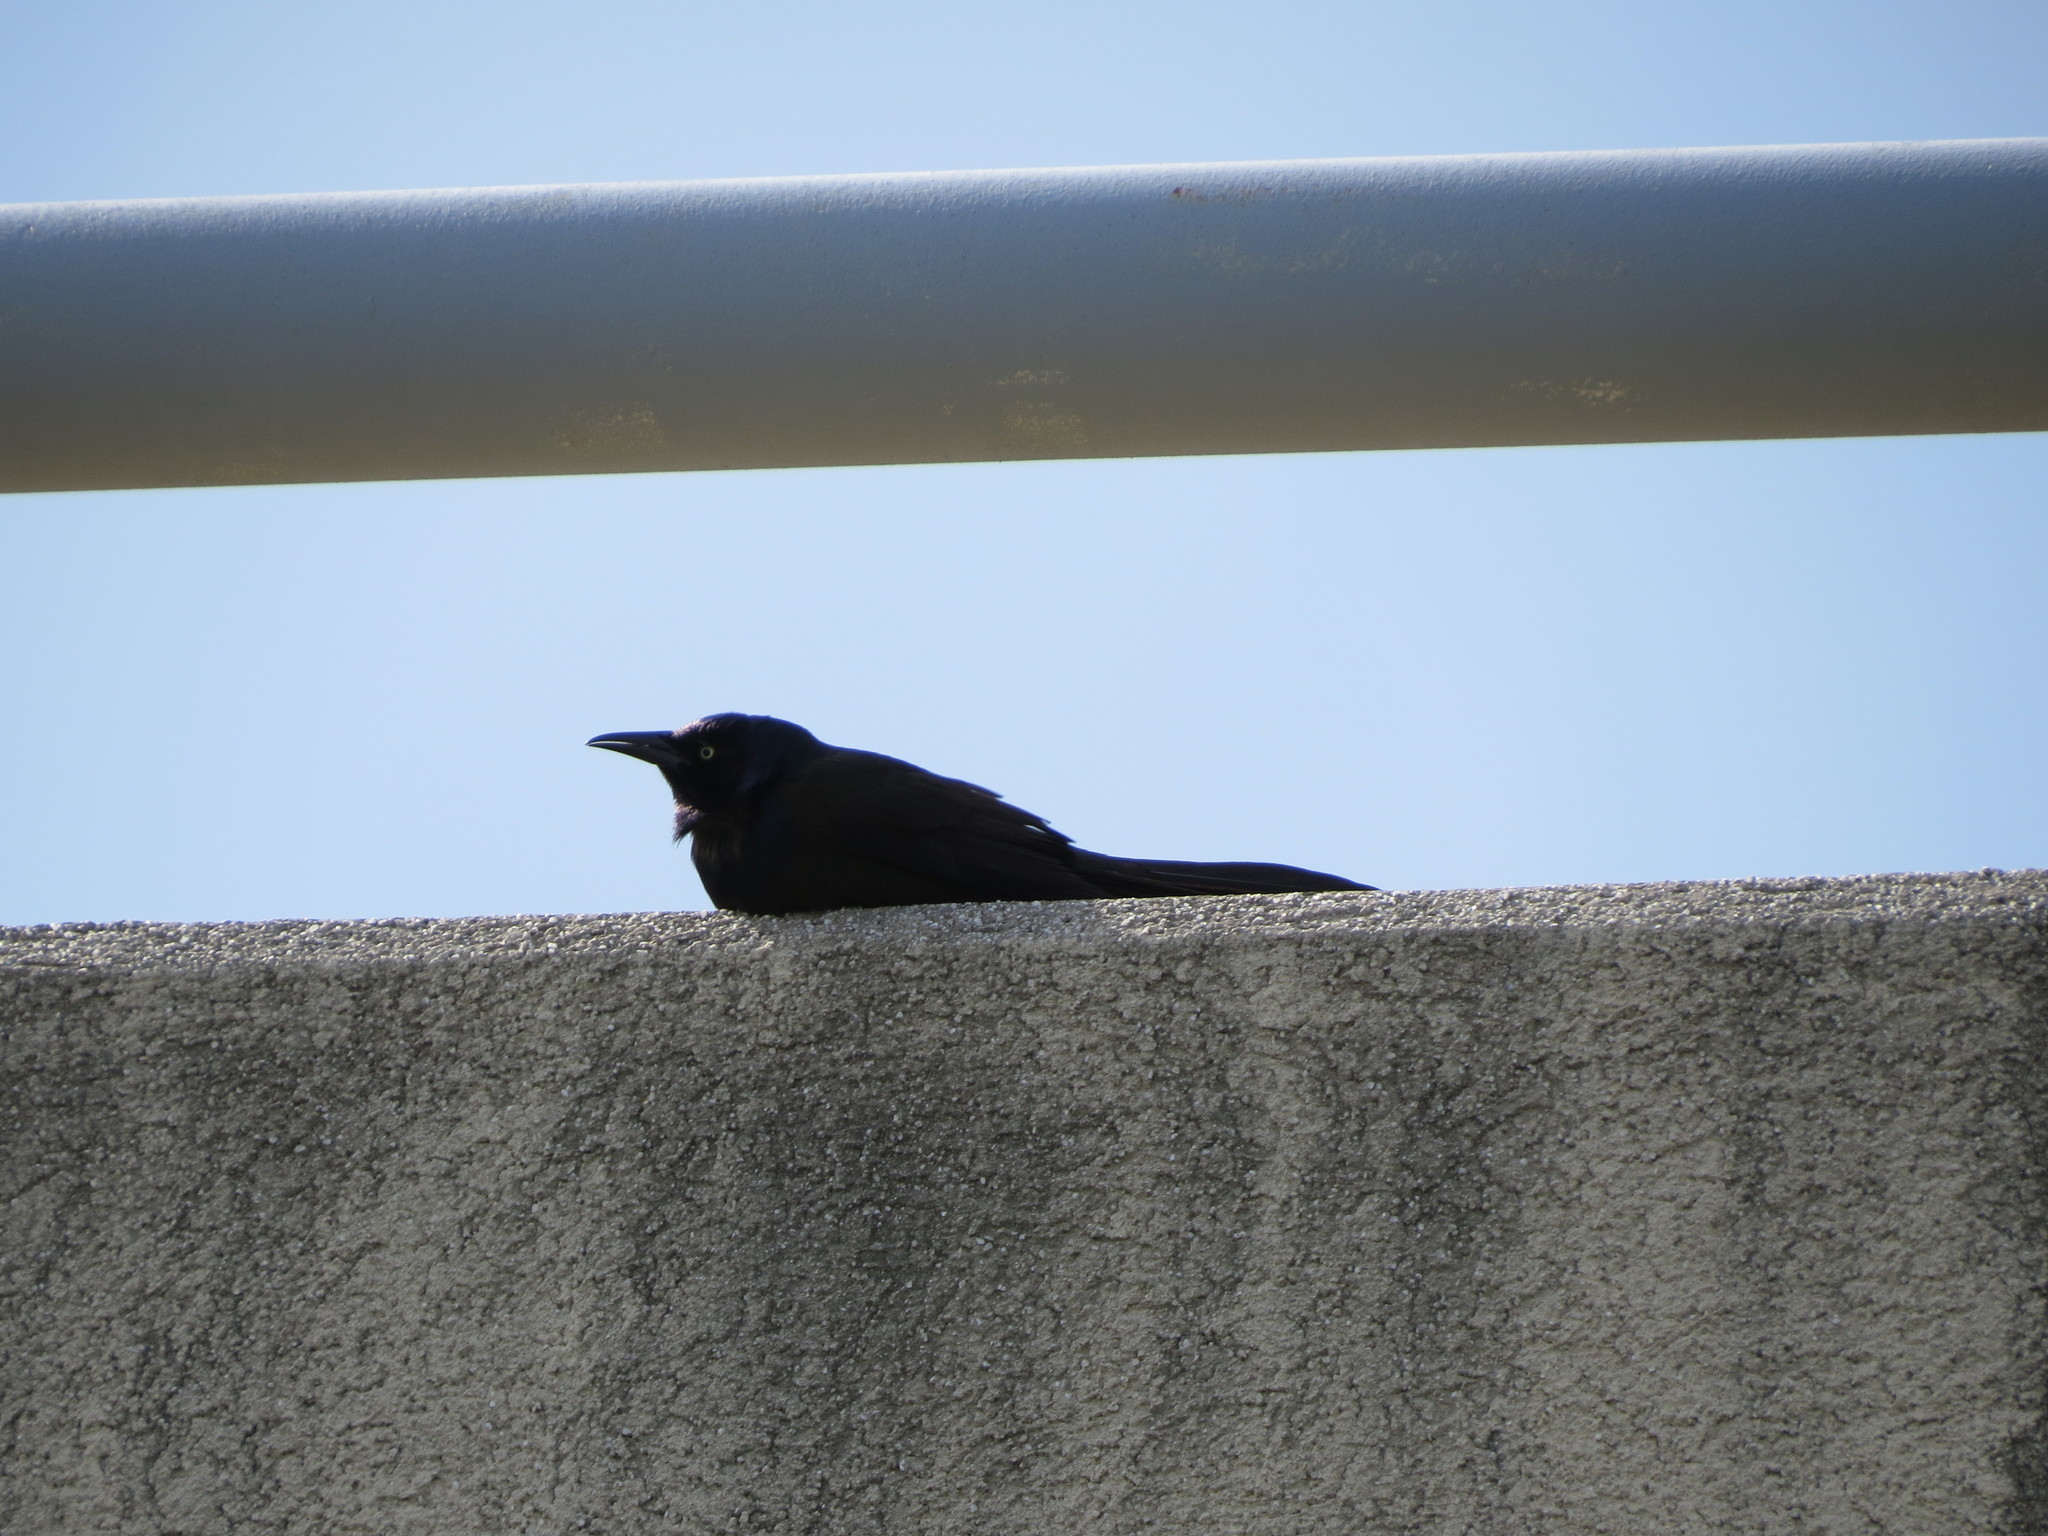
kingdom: Animalia
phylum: Chordata
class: Aves
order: Passeriformes
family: Icteridae
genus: Quiscalus
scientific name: Quiscalus quiscula
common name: Common grackle
